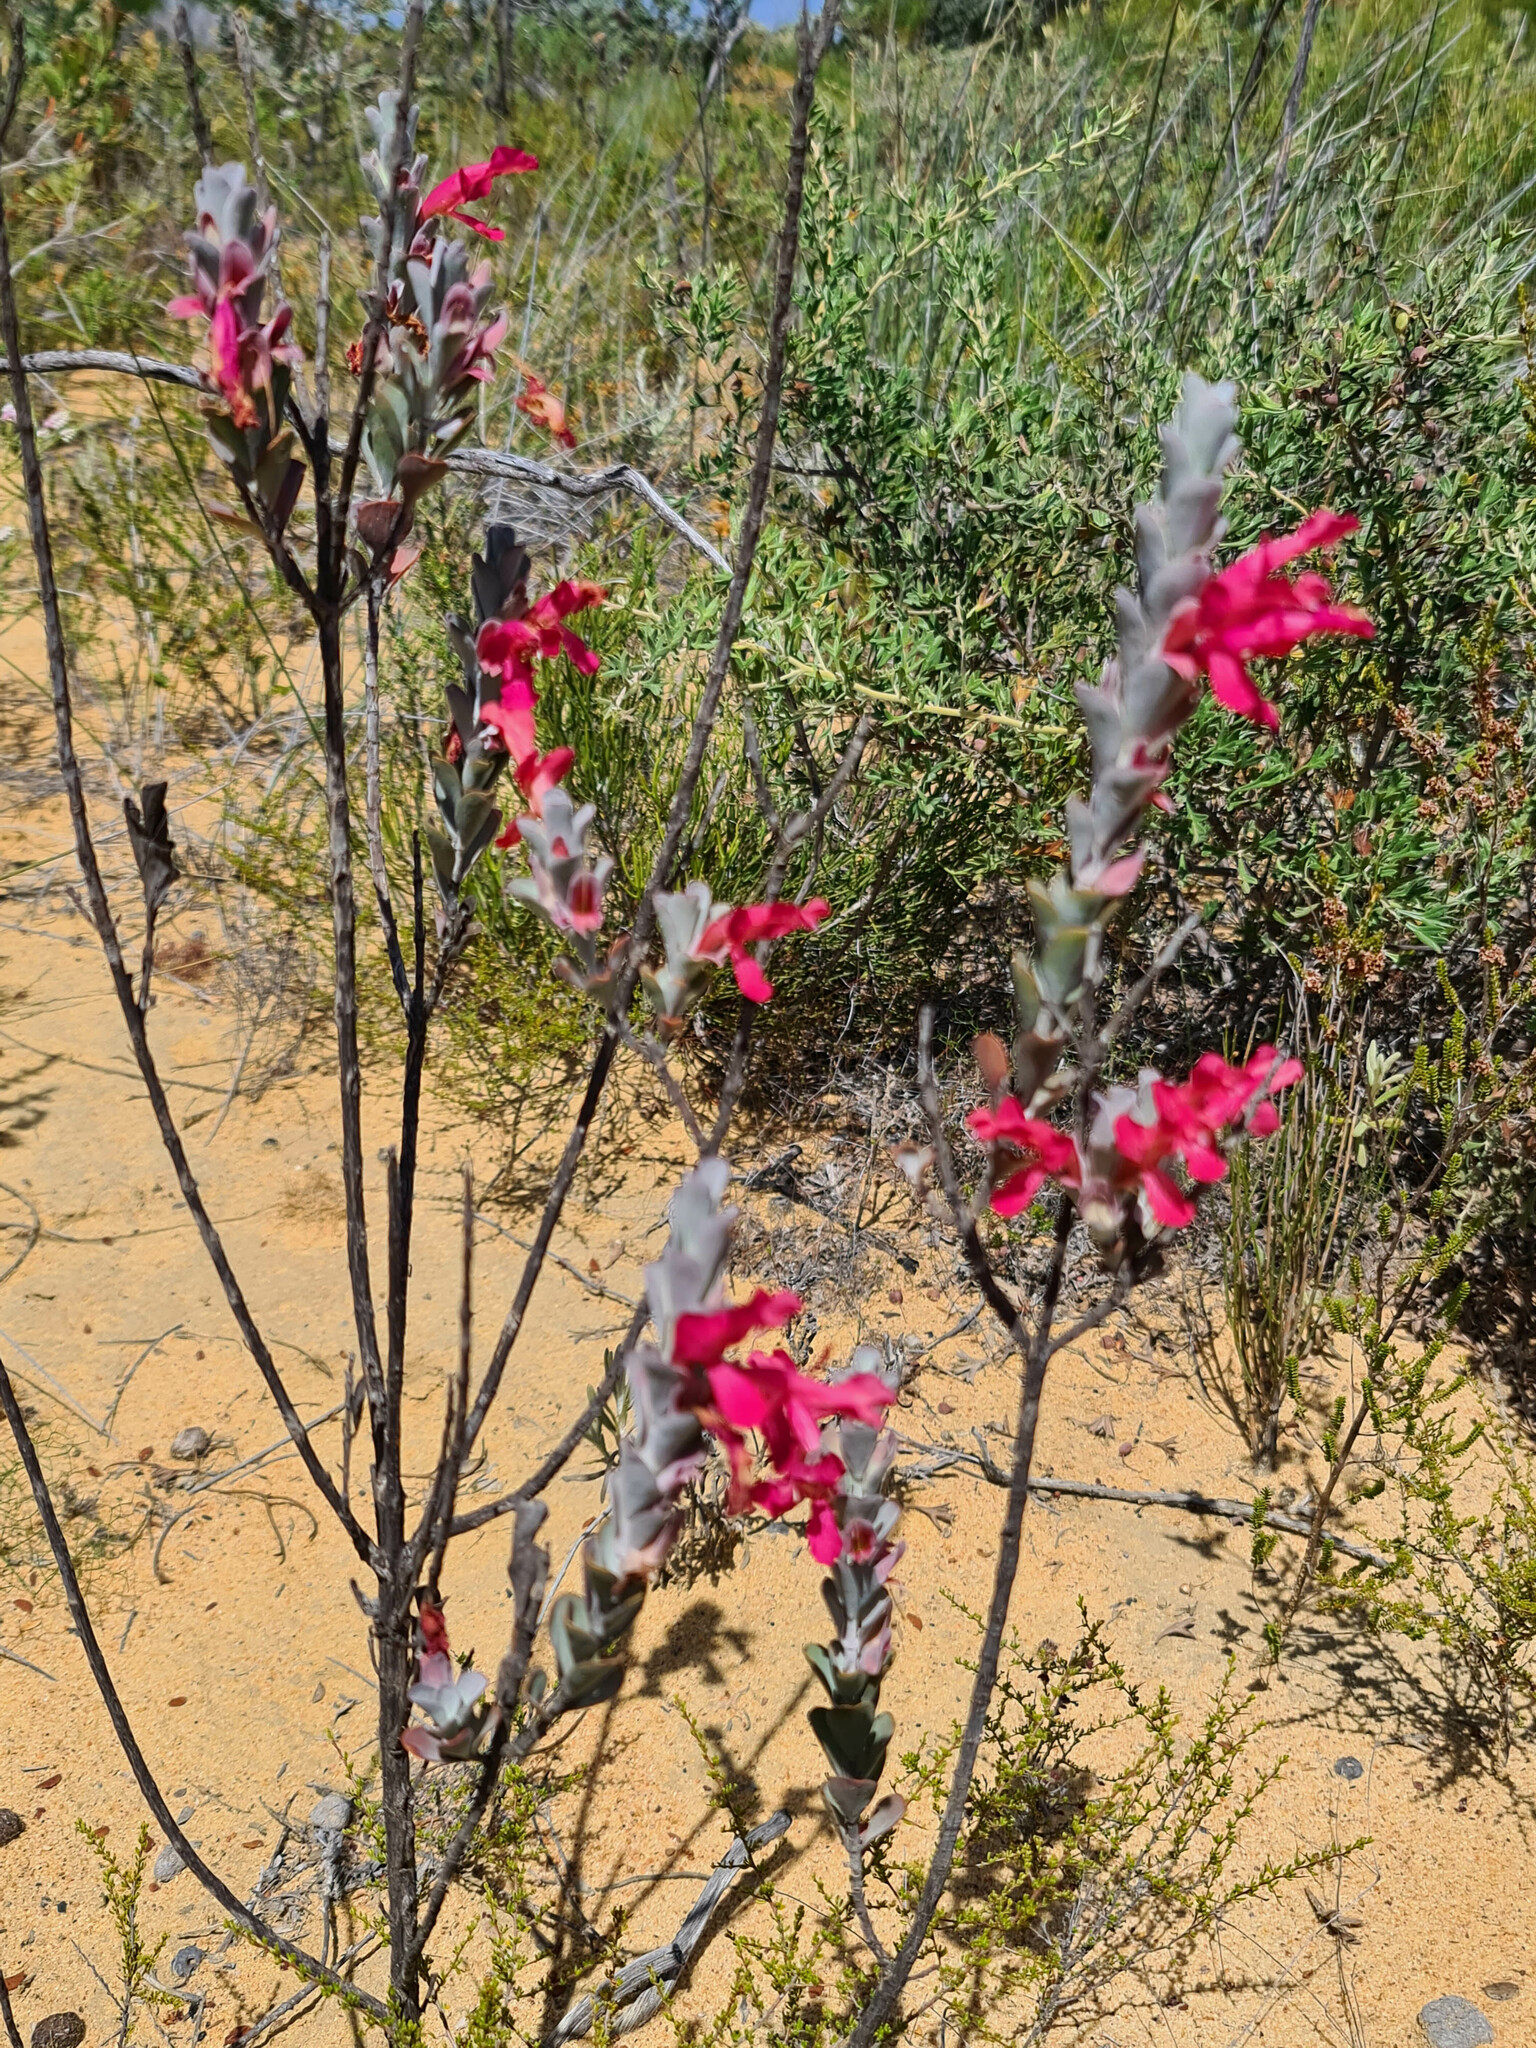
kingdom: Plantae
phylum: Tracheophyta
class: Magnoliopsida
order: Lamiales
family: Lamiaceae
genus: Hemigenia
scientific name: Hemigenia macrantha
